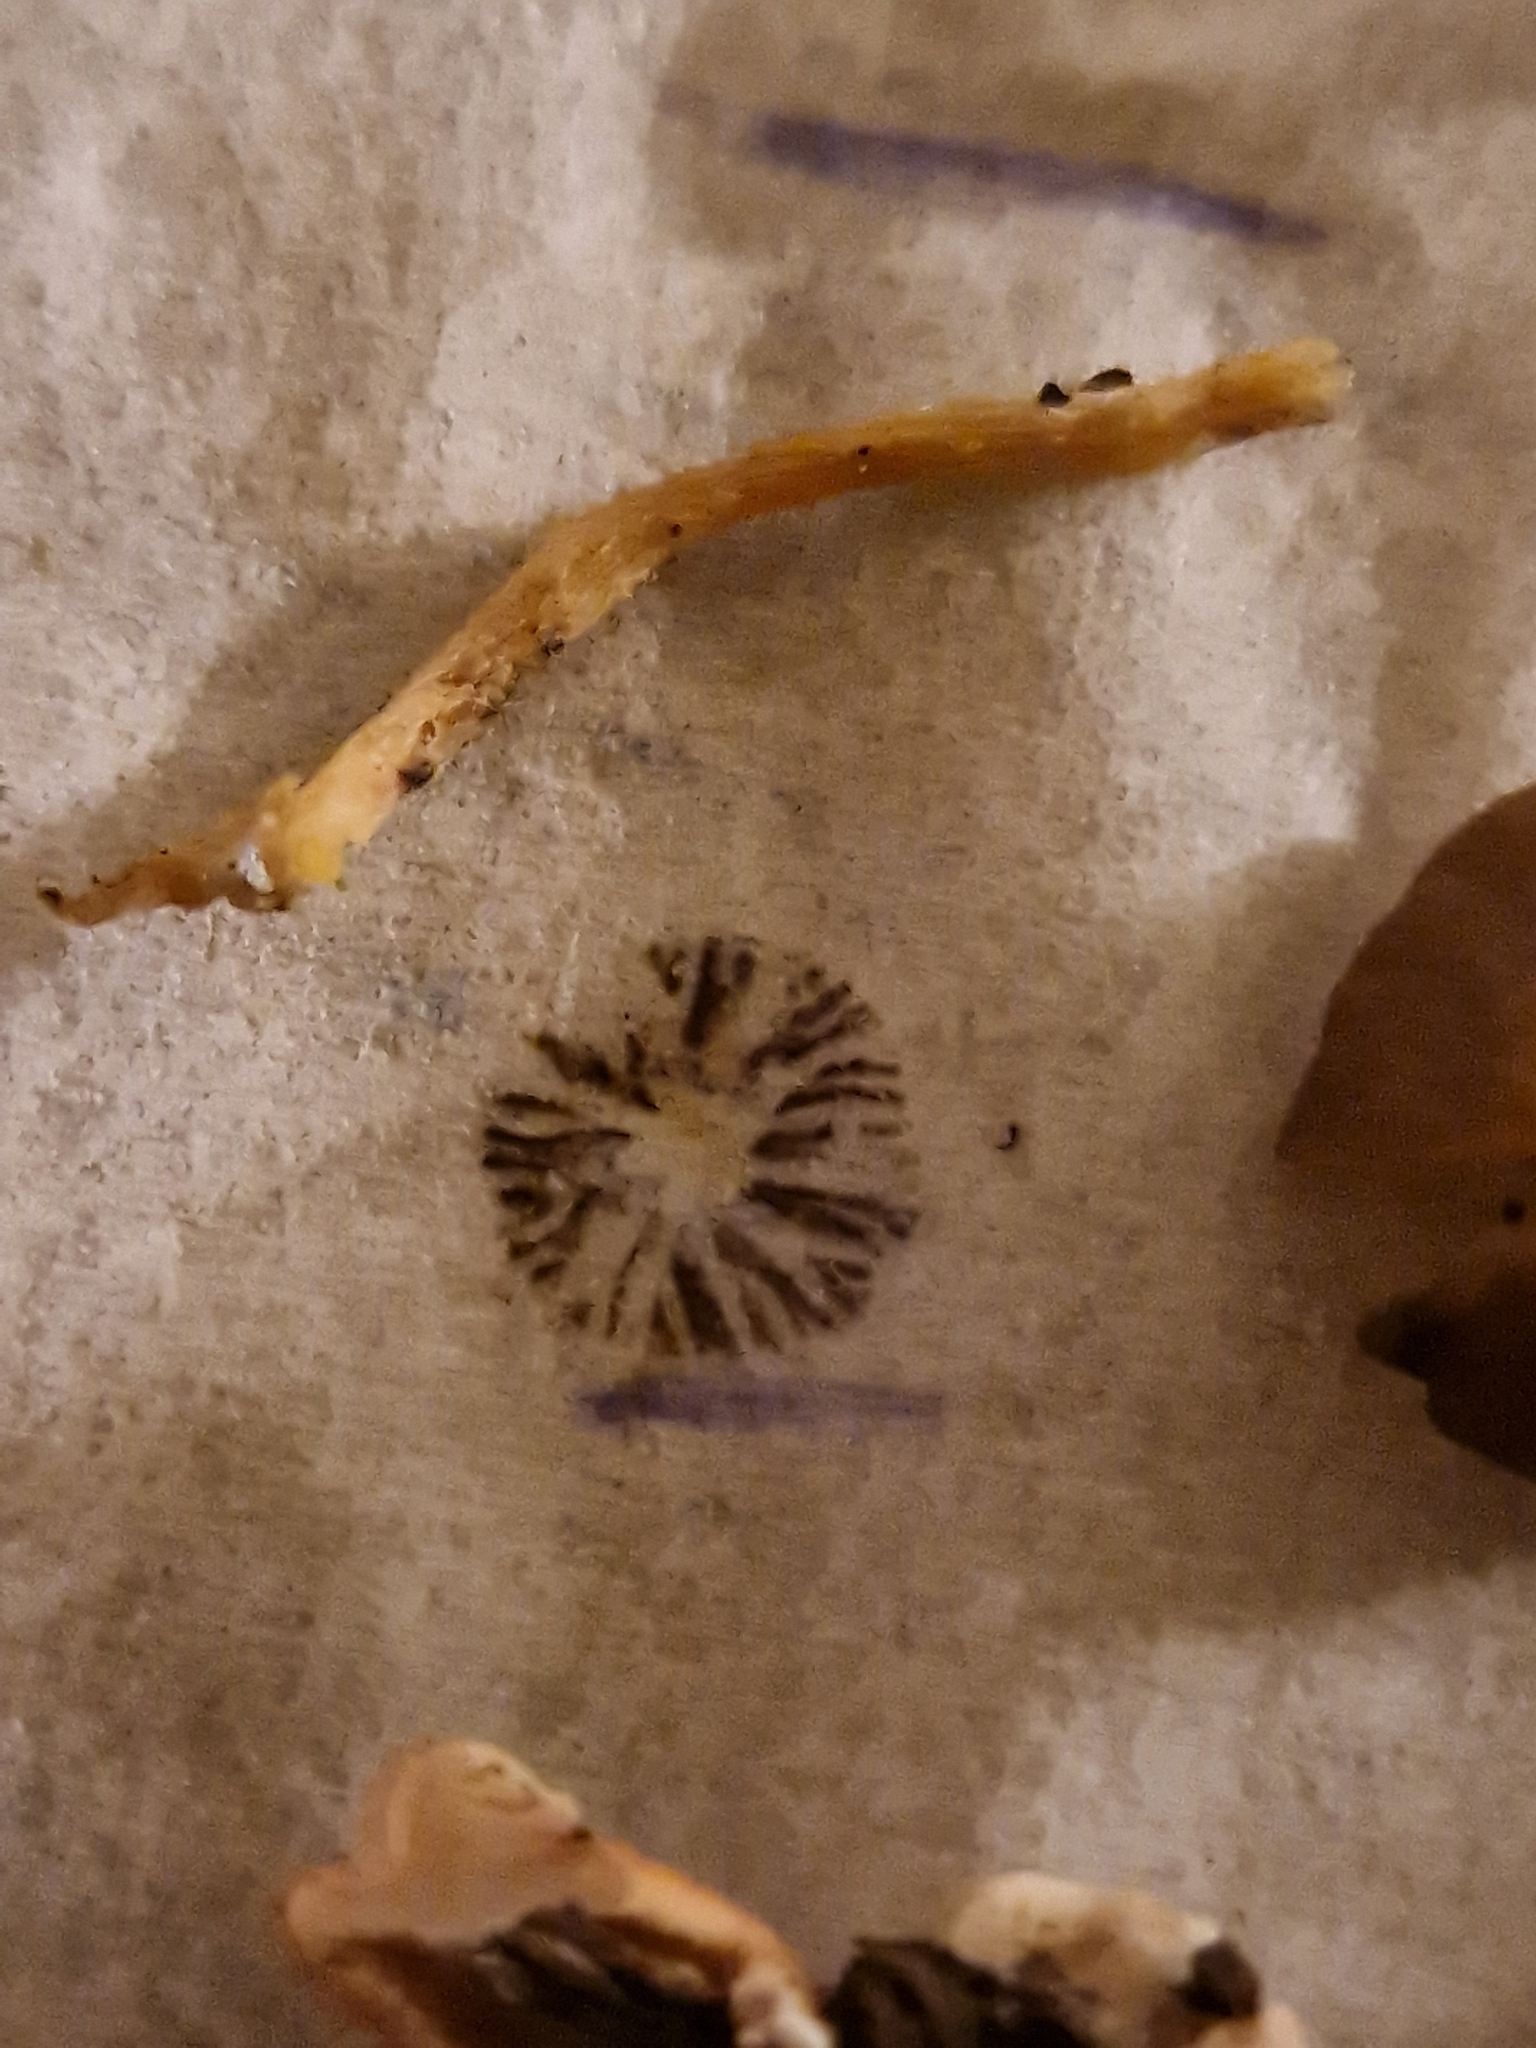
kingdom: Fungi
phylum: Basidiomycota
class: Agaricomycetes
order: Agaricales
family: Bolbitiaceae
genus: Panaeolus
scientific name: Panaeolus fimicola
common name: Turf mottlegill
